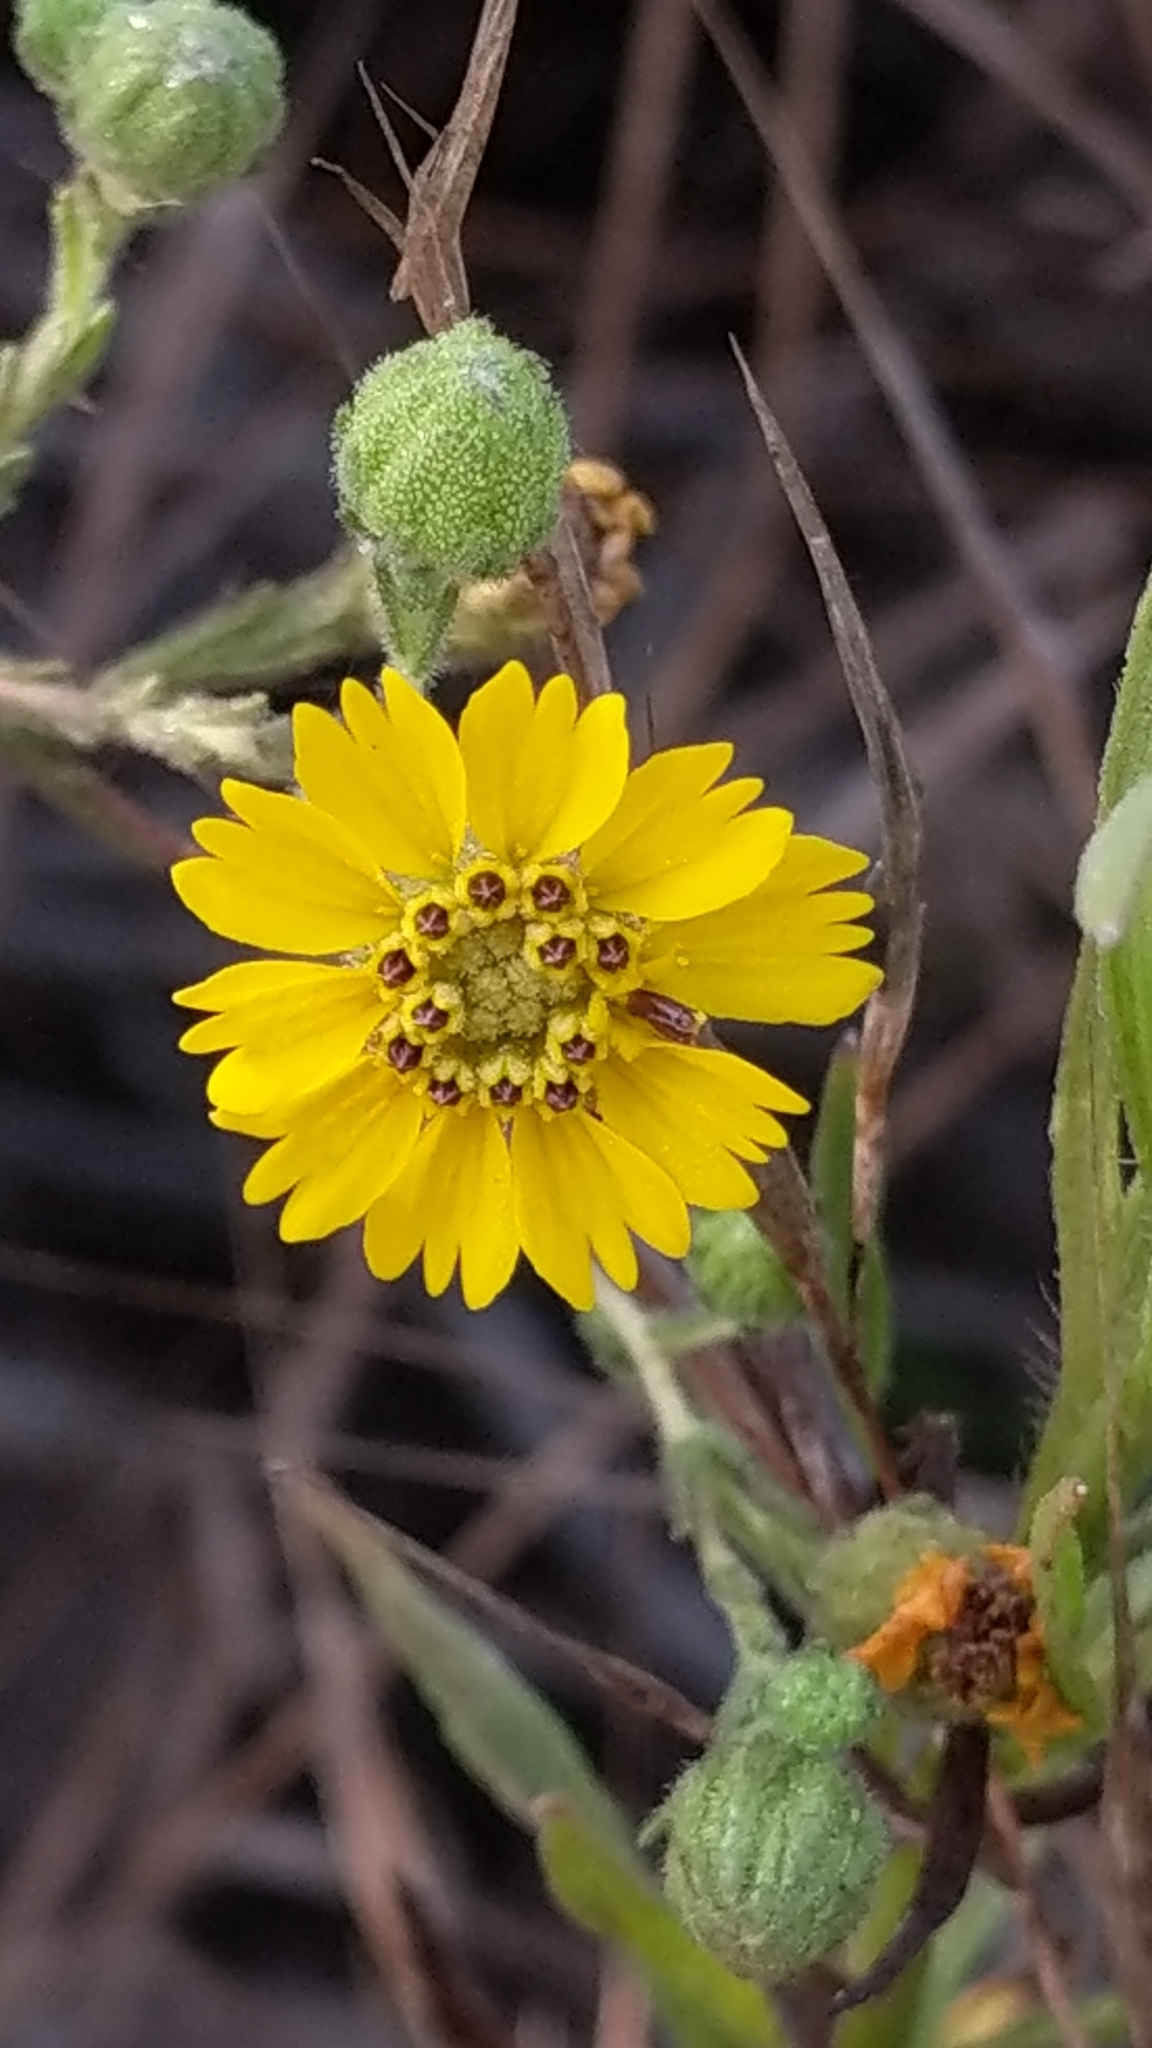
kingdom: Plantae
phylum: Tracheophyta
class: Magnoliopsida
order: Asterales
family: Asteraceae
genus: Deinandra
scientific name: Deinandra increscens
